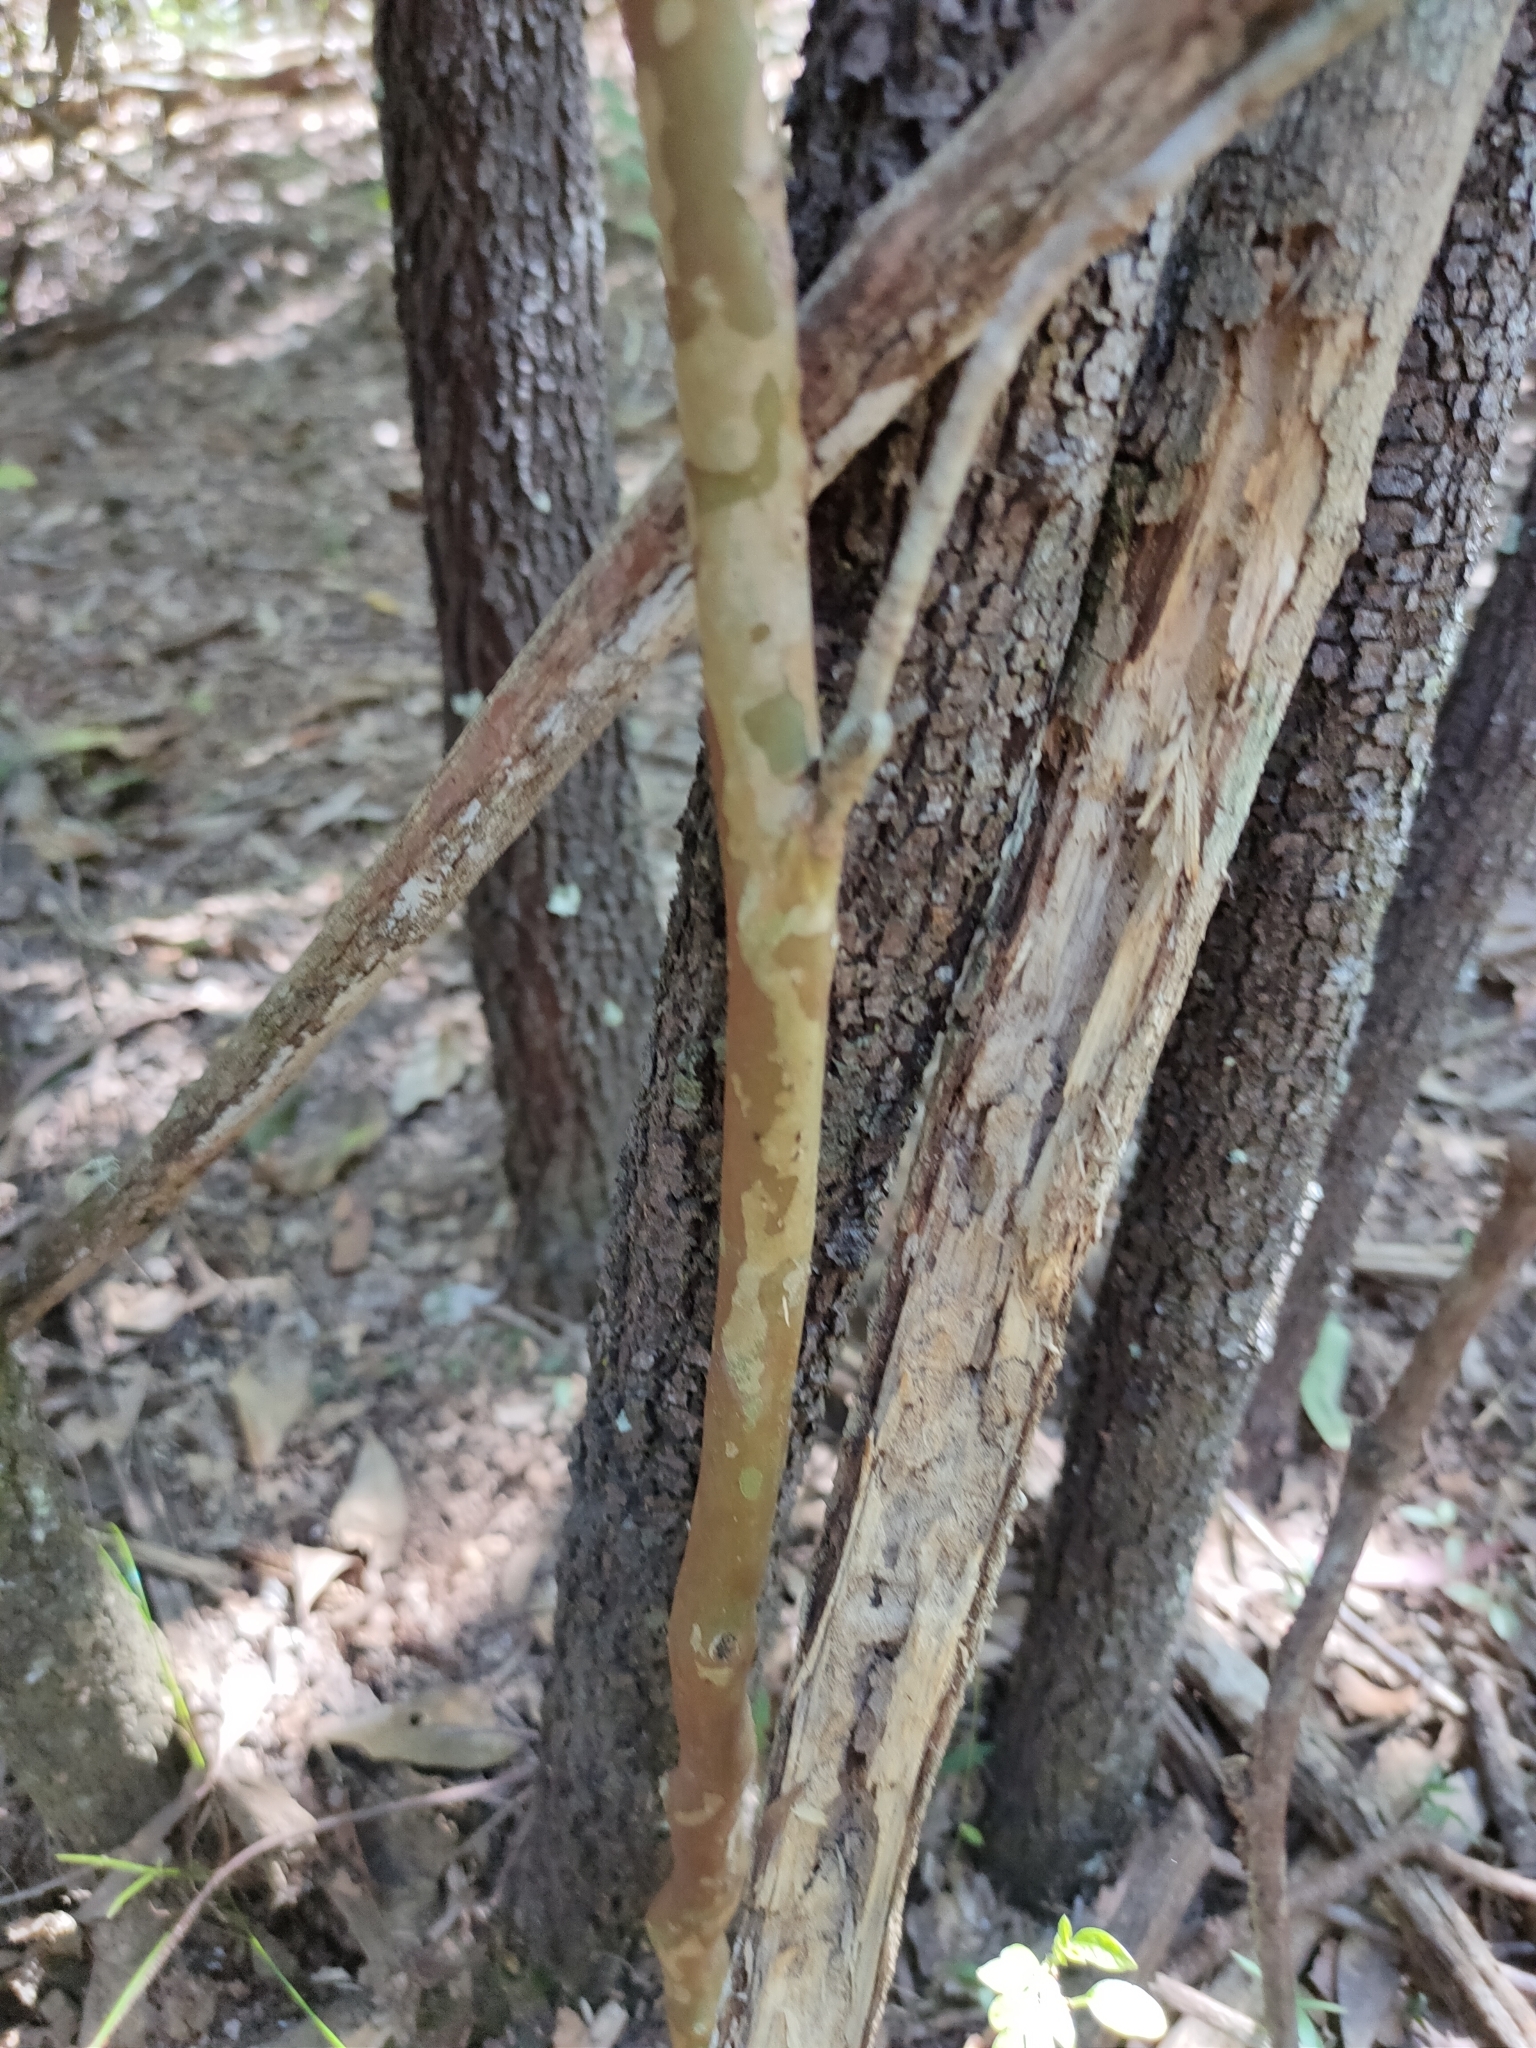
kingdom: Plantae
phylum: Tracheophyta
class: Magnoliopsida
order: Myrtales
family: Myrtaceae
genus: Gossia
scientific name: Gossia bidwillii
